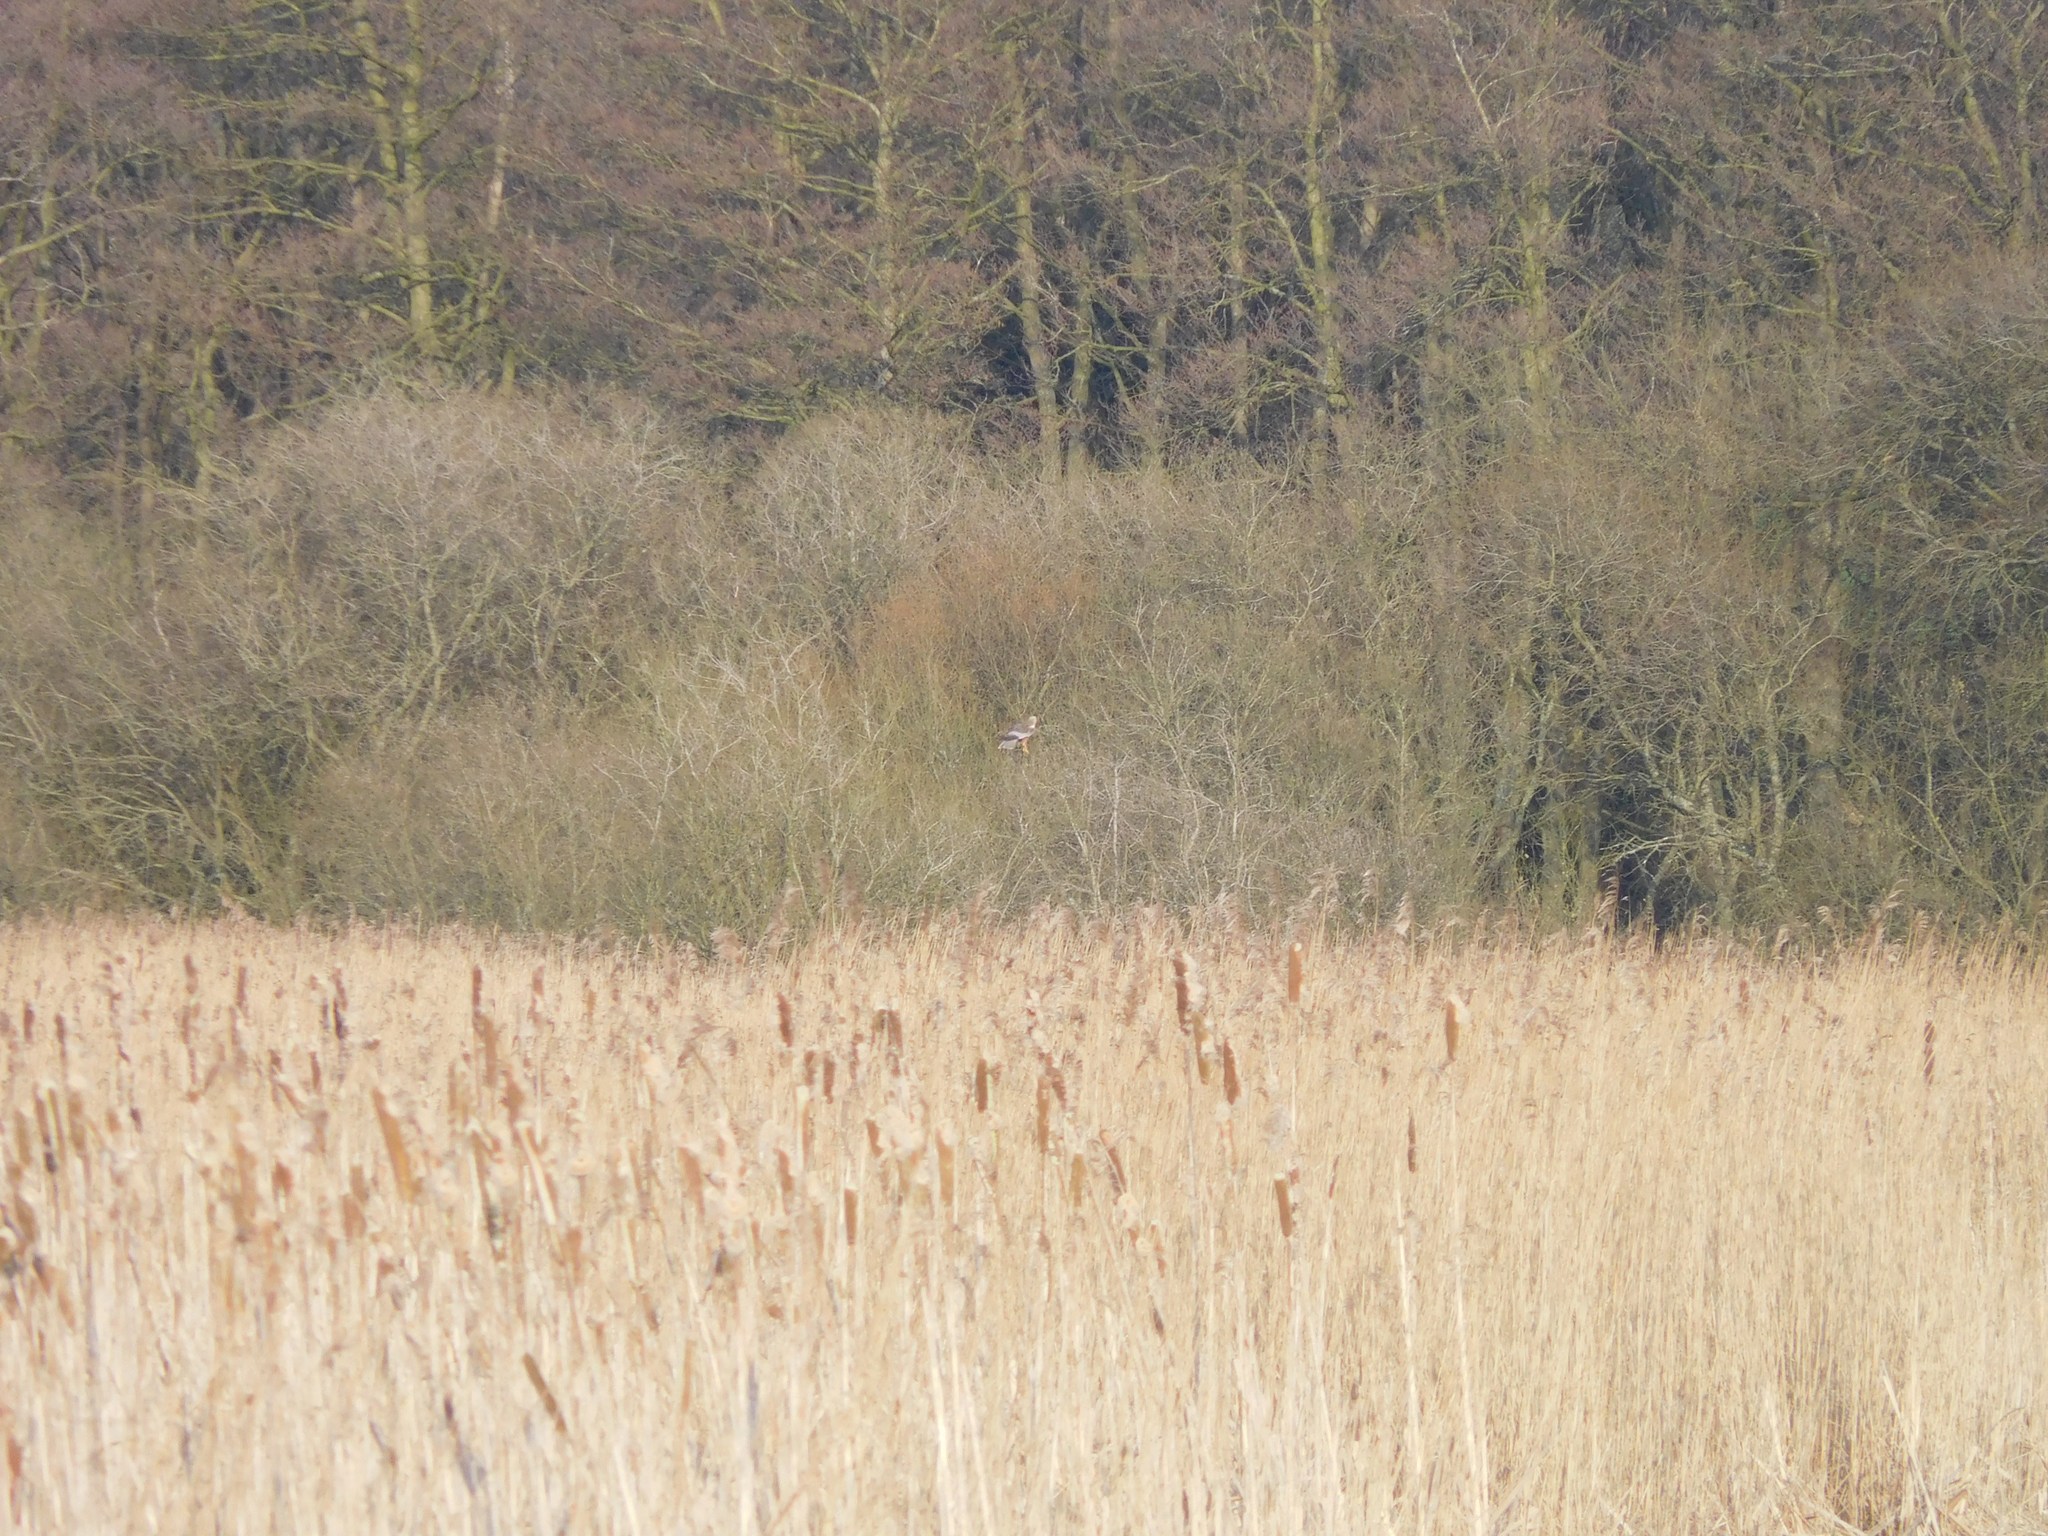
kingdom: Animalia
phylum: Chordata
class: Aves
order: Accipitriformes
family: Accipitridae
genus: Circus
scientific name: Circus aeruginosus
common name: Western marsh harrier
